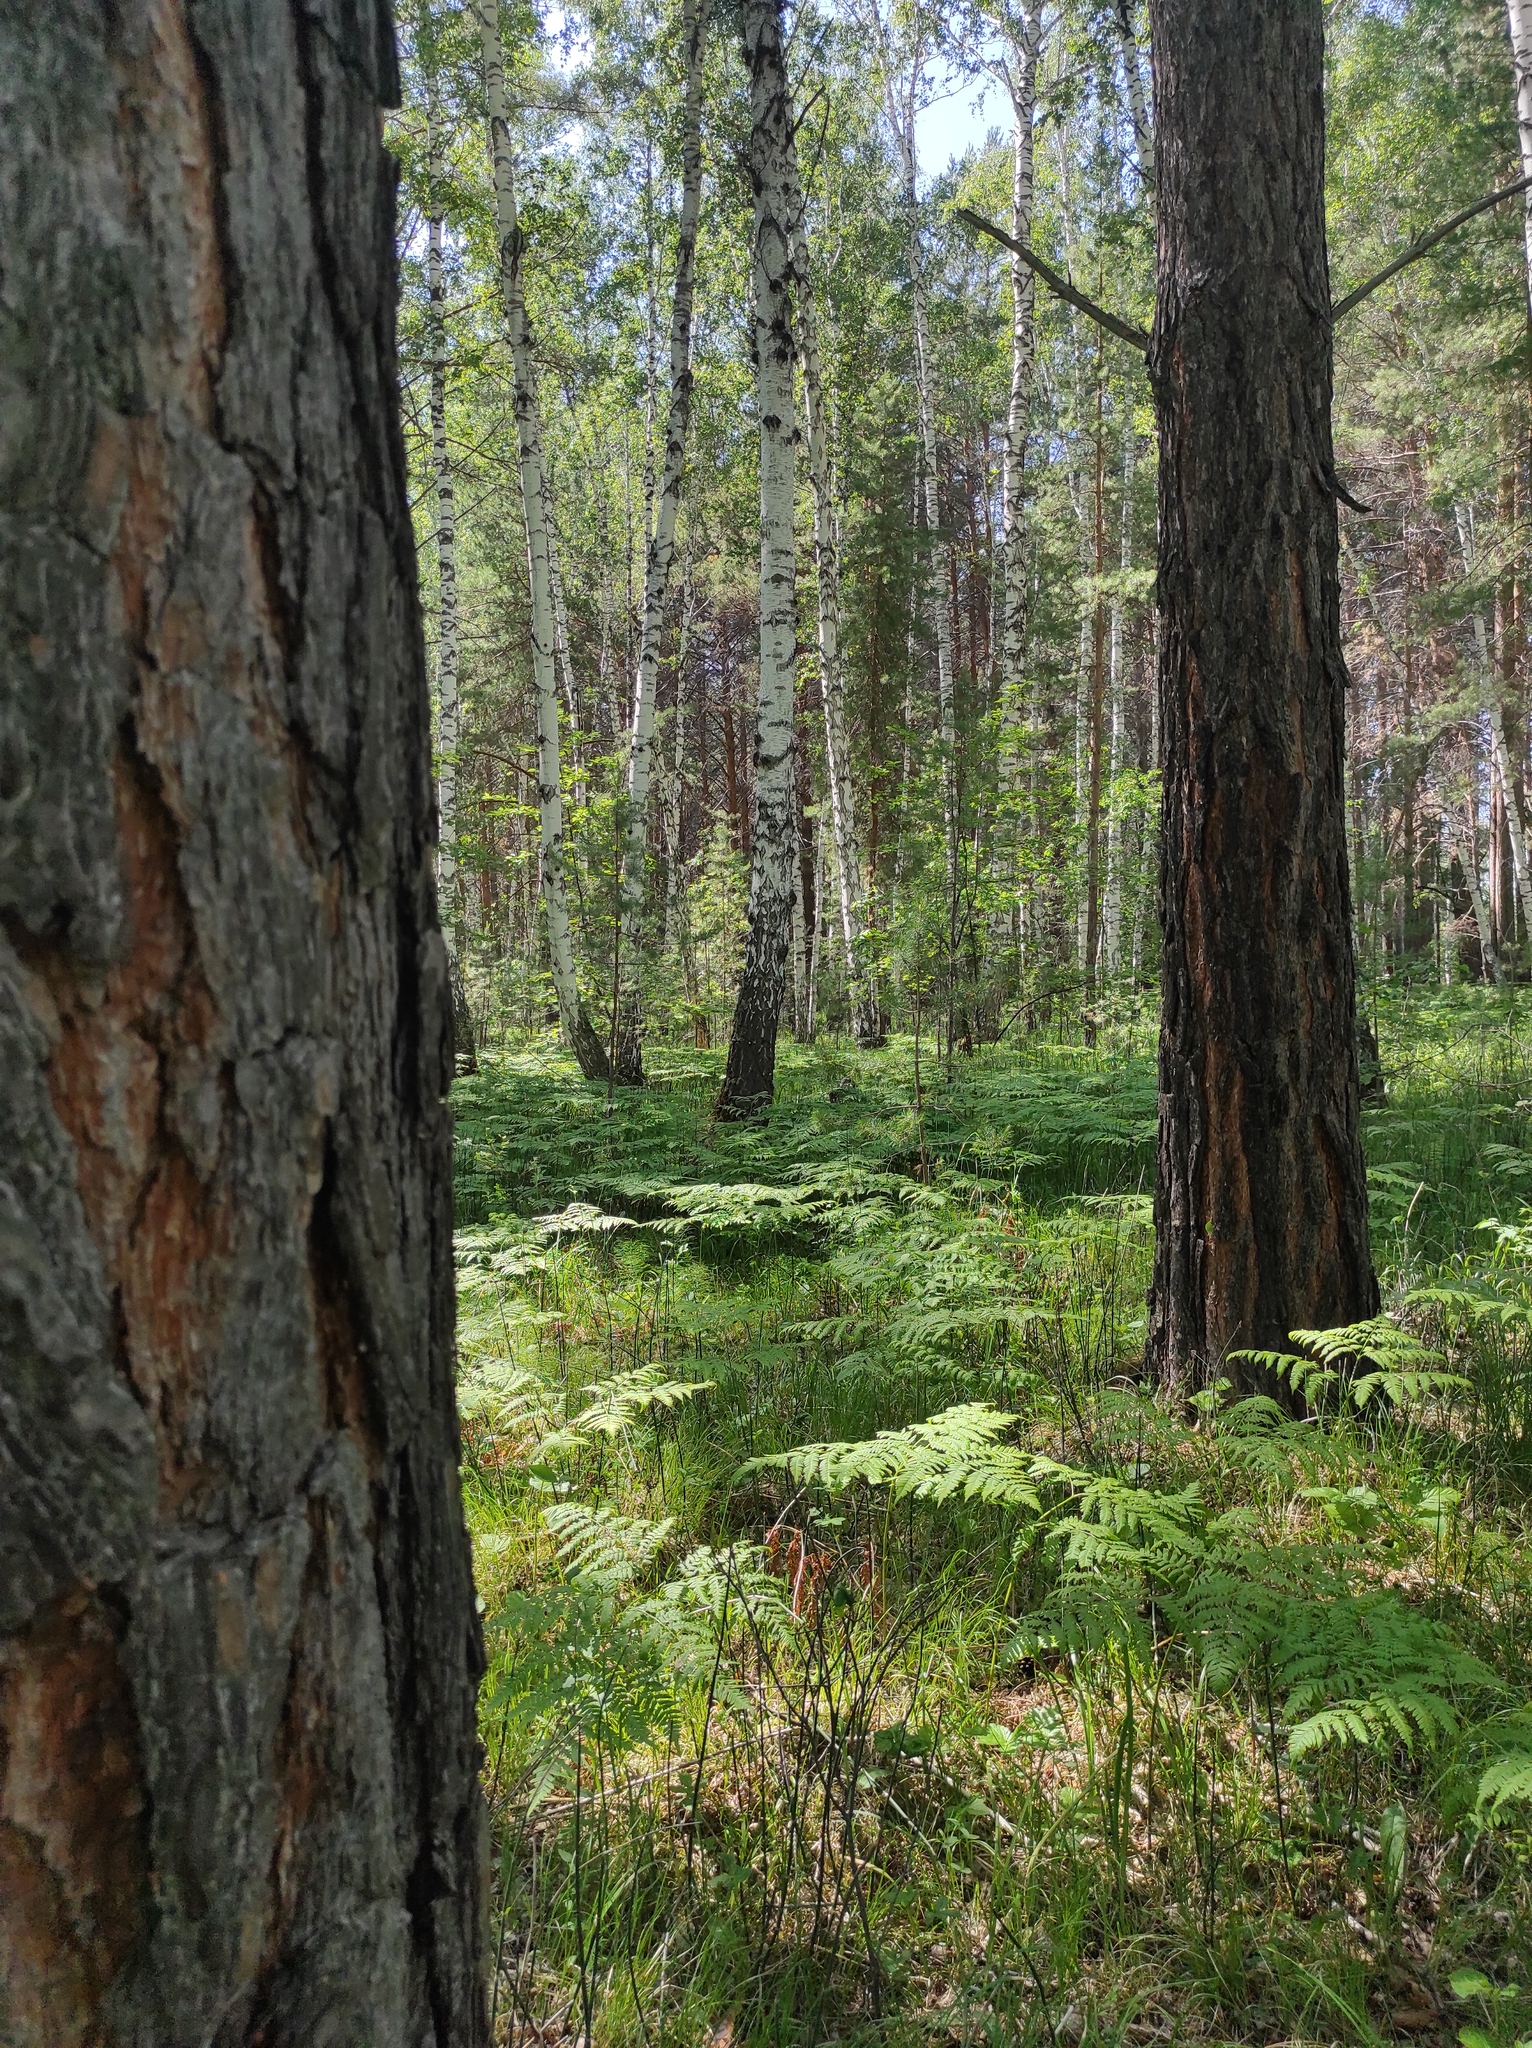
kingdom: Plantae
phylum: Tracheophyta
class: Pinopsida
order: Pinales
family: Pinaceae
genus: Pinus
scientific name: Pinus sylvestris
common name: Scots pine
